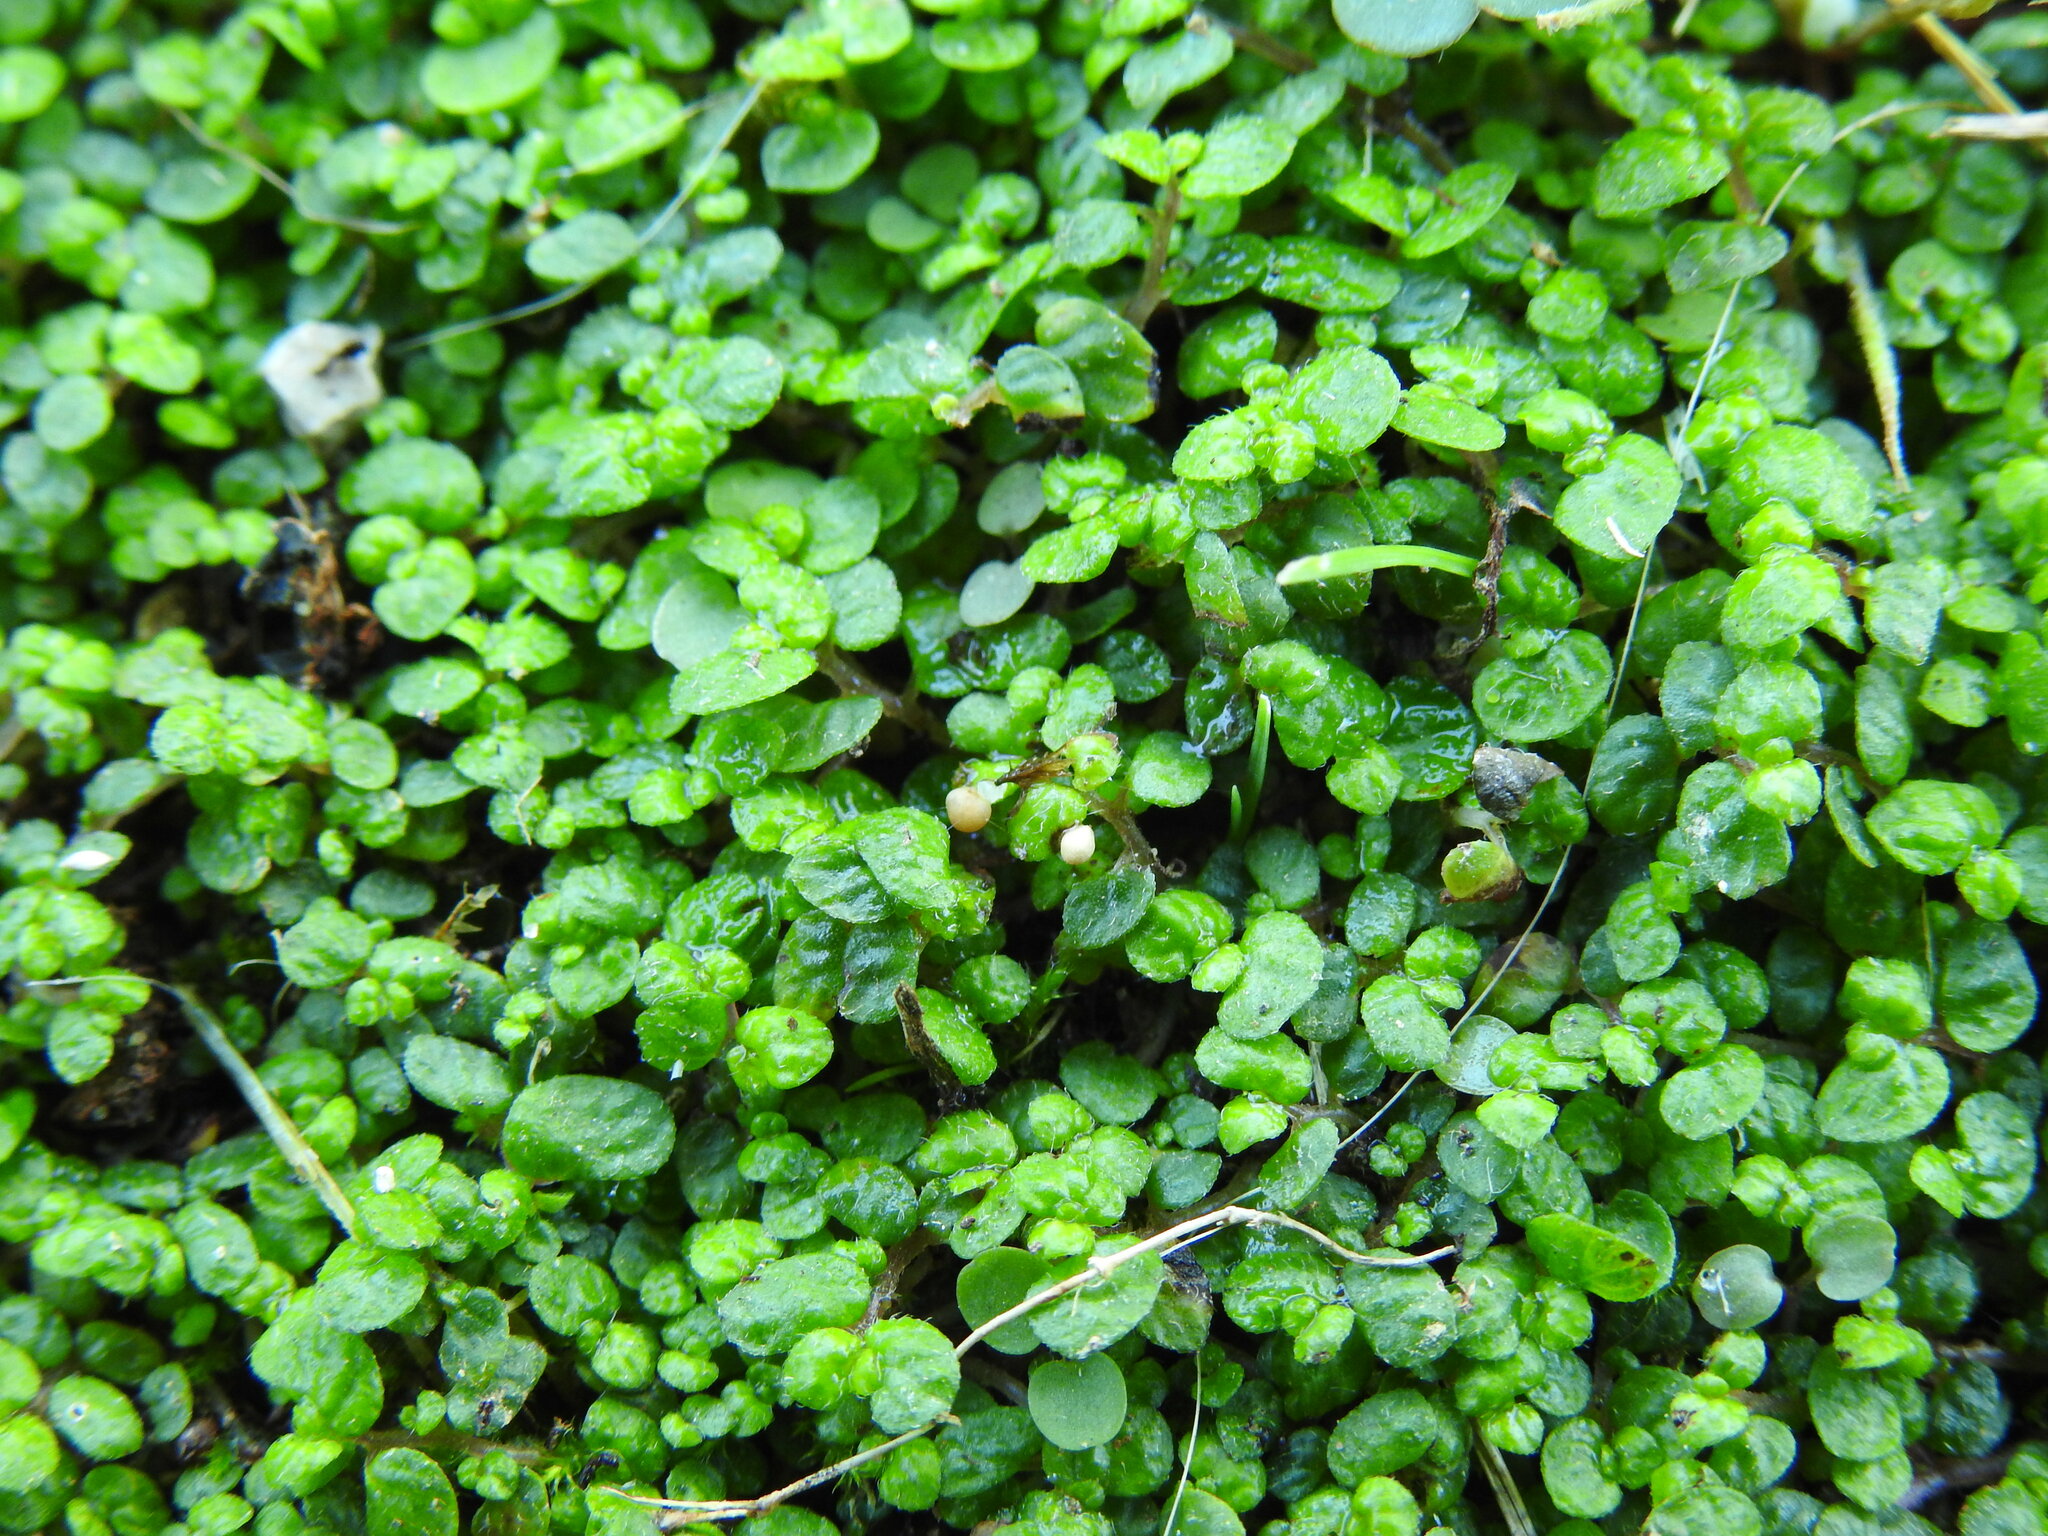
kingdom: Plantae
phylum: Tracheophyta
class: Magnoliopsida
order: Rosales
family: Urticaceae
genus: Soleirolia
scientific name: Soleirolia soleirolii
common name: Mind-your-own-business
